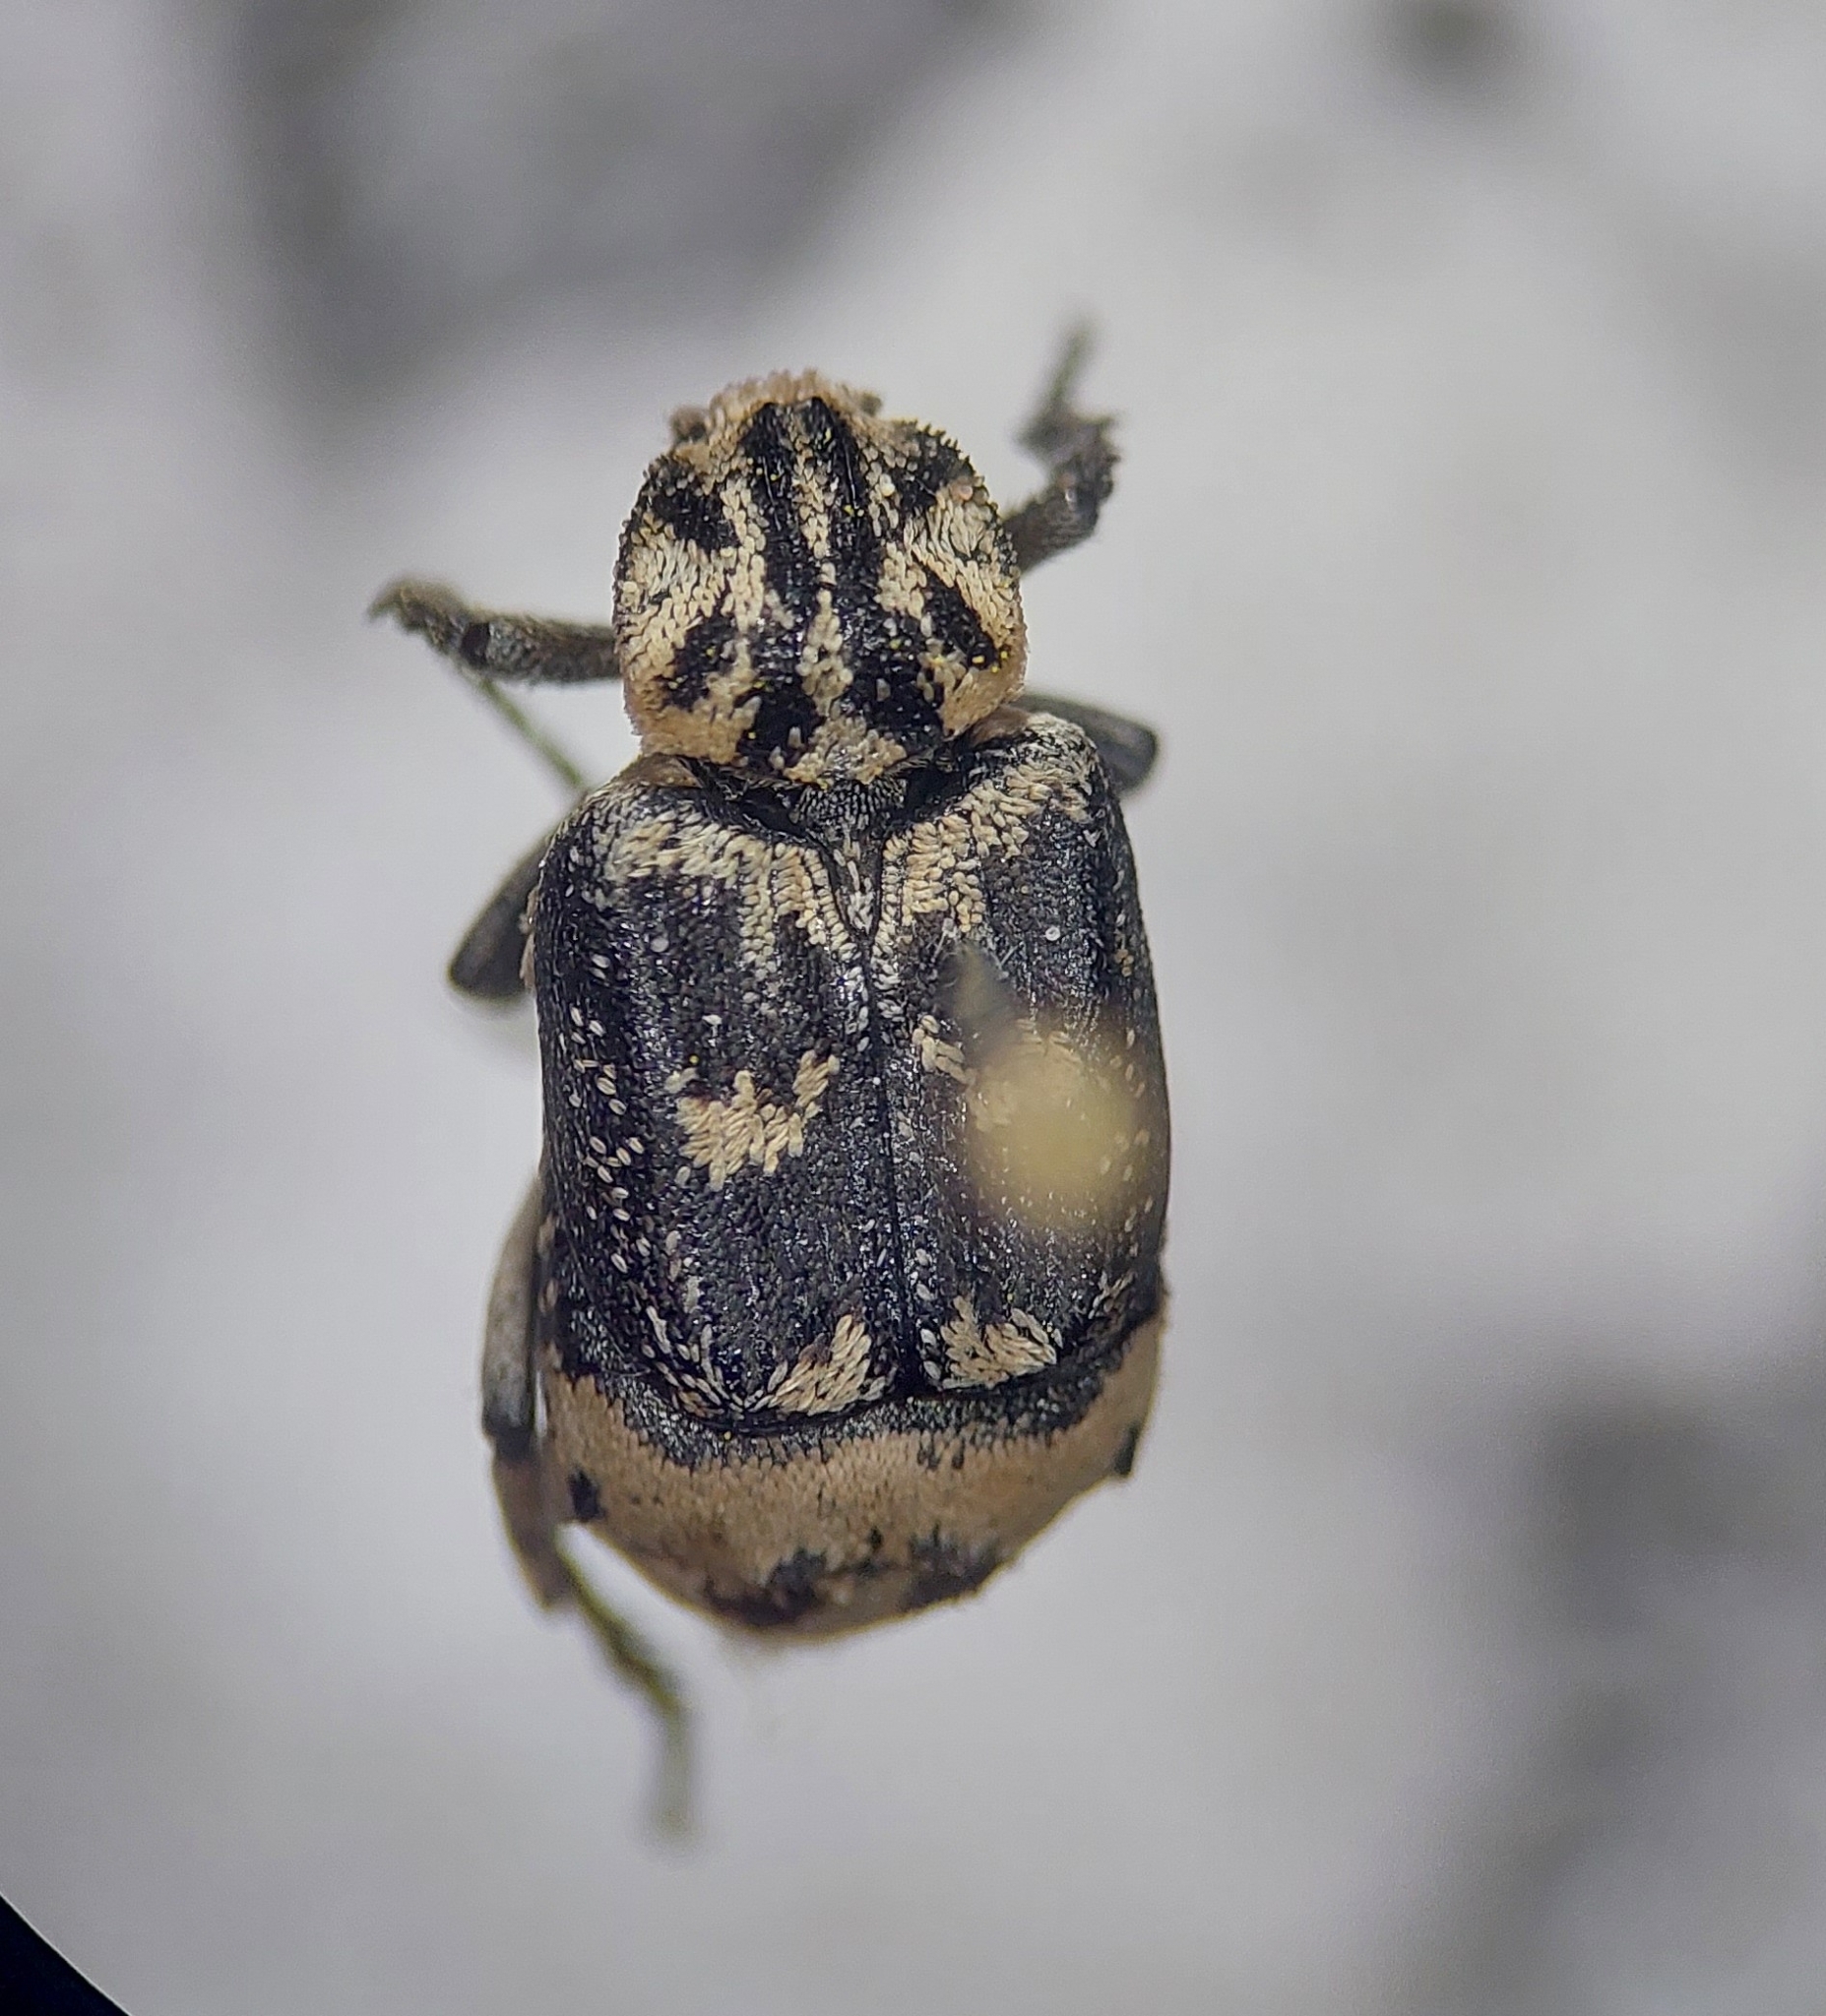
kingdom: Animalia
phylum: Arthropoda
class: Insecta
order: Coleoptera
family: Scarabaeidae
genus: Valgus
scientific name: Valgus hemipterus
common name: Bug flower chafer
